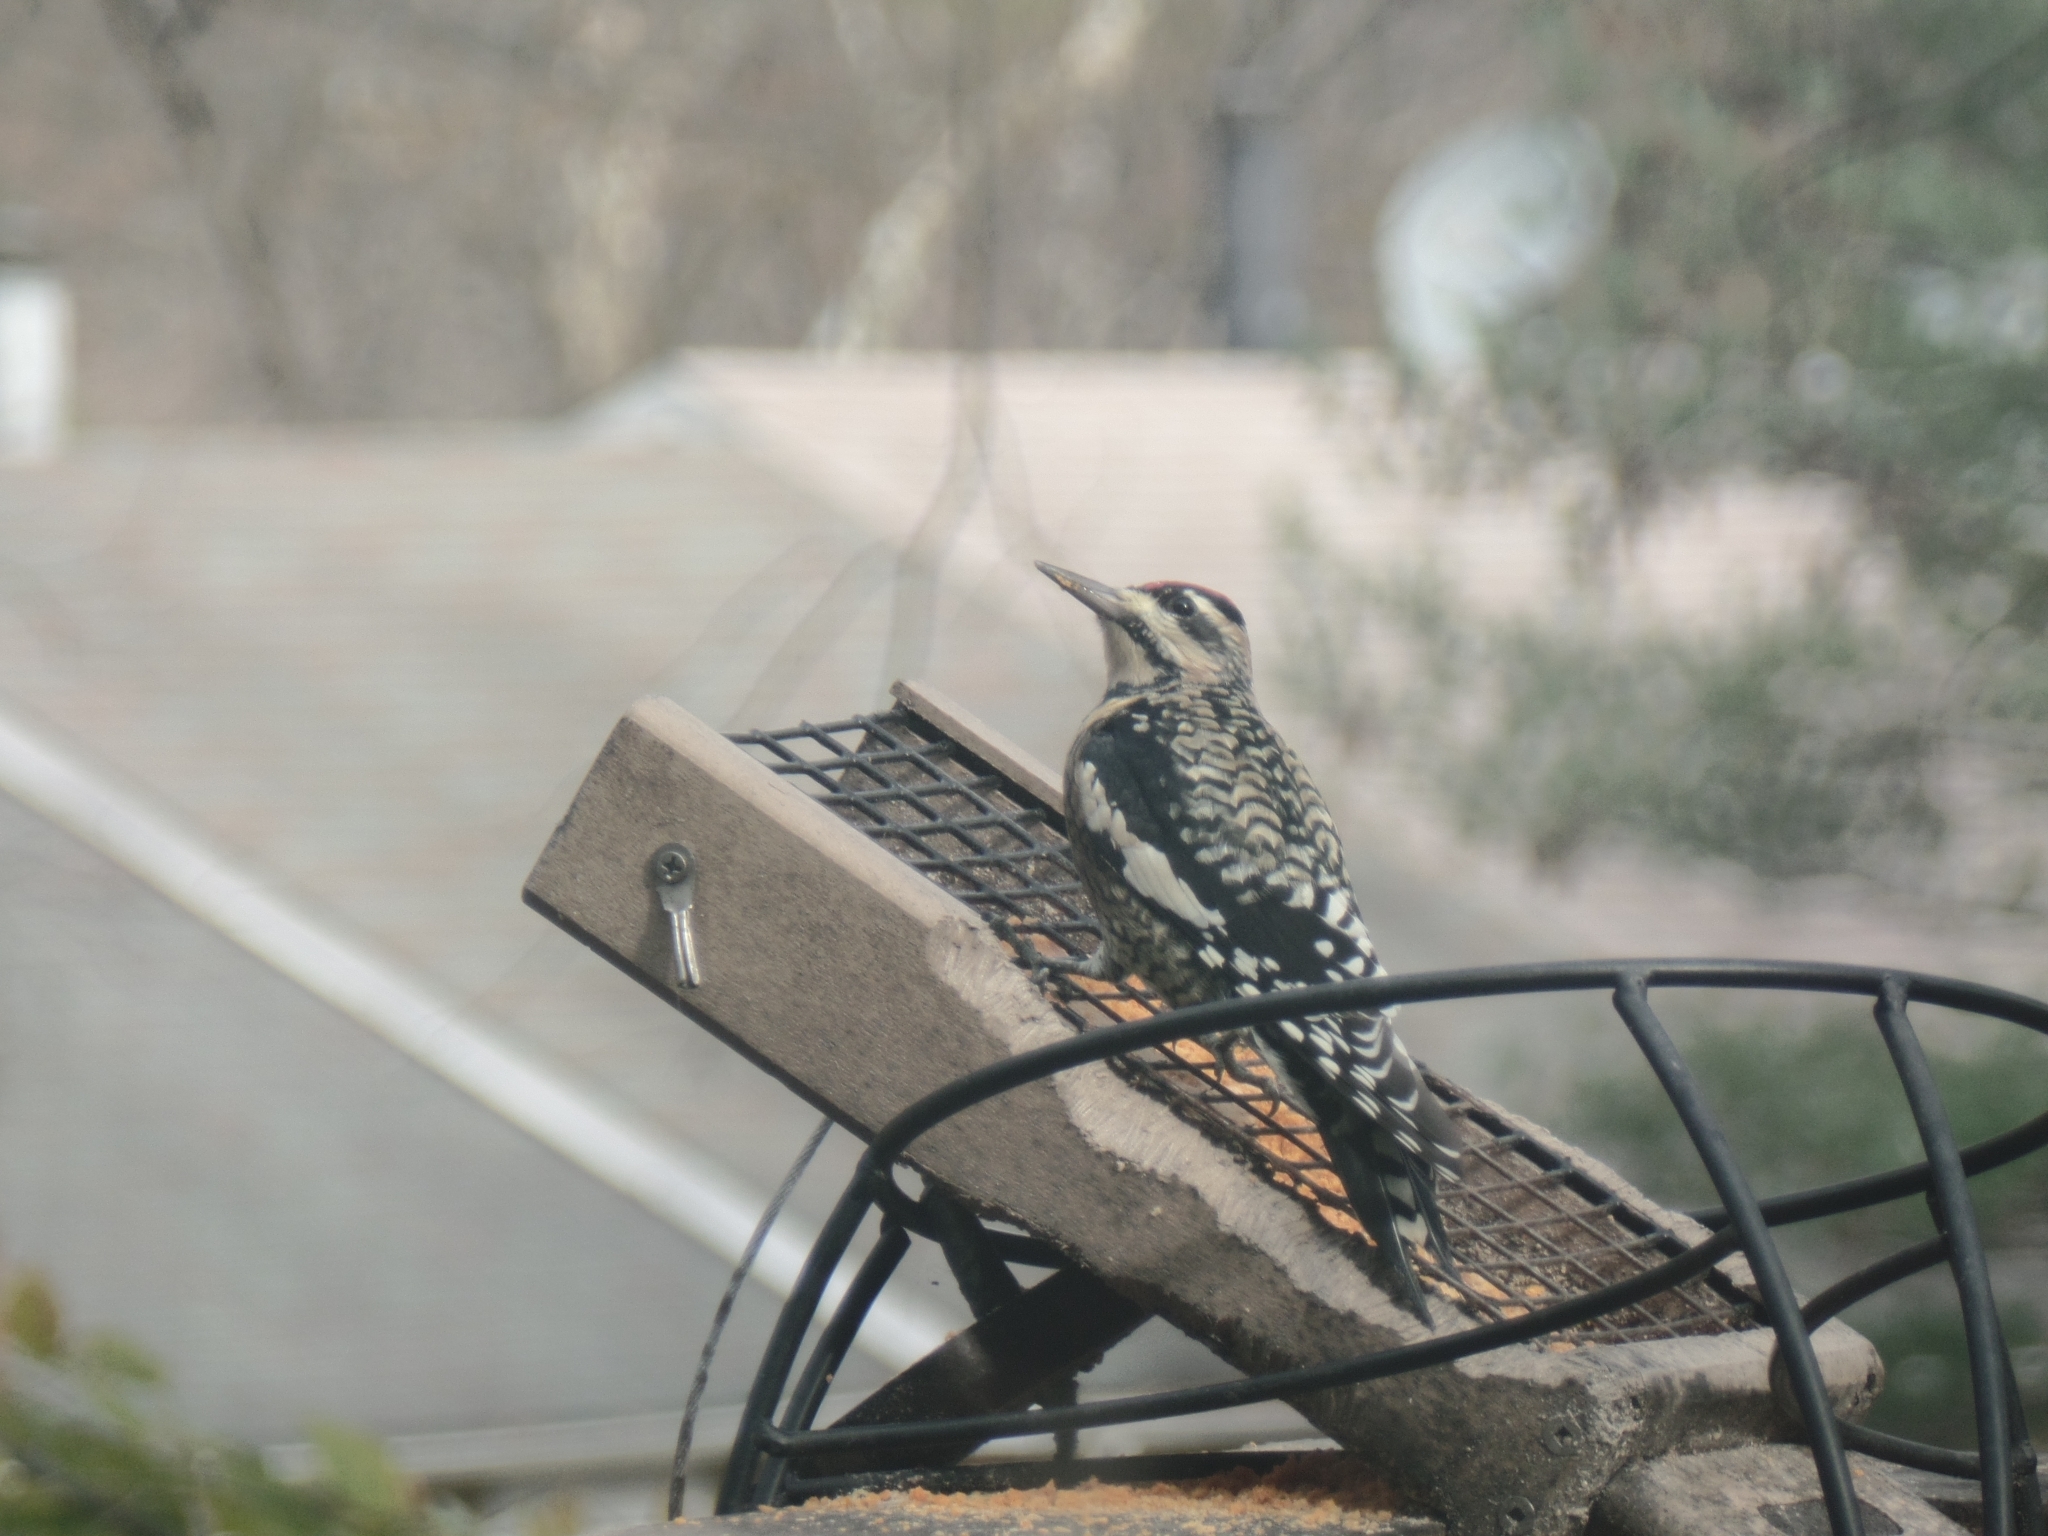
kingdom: Animalia
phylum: Chordata
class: Aves
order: Piciformes
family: Picidae
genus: Sphyrapicus
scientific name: Sphyrapicus varius
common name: Yellow-bellied sapsucker
